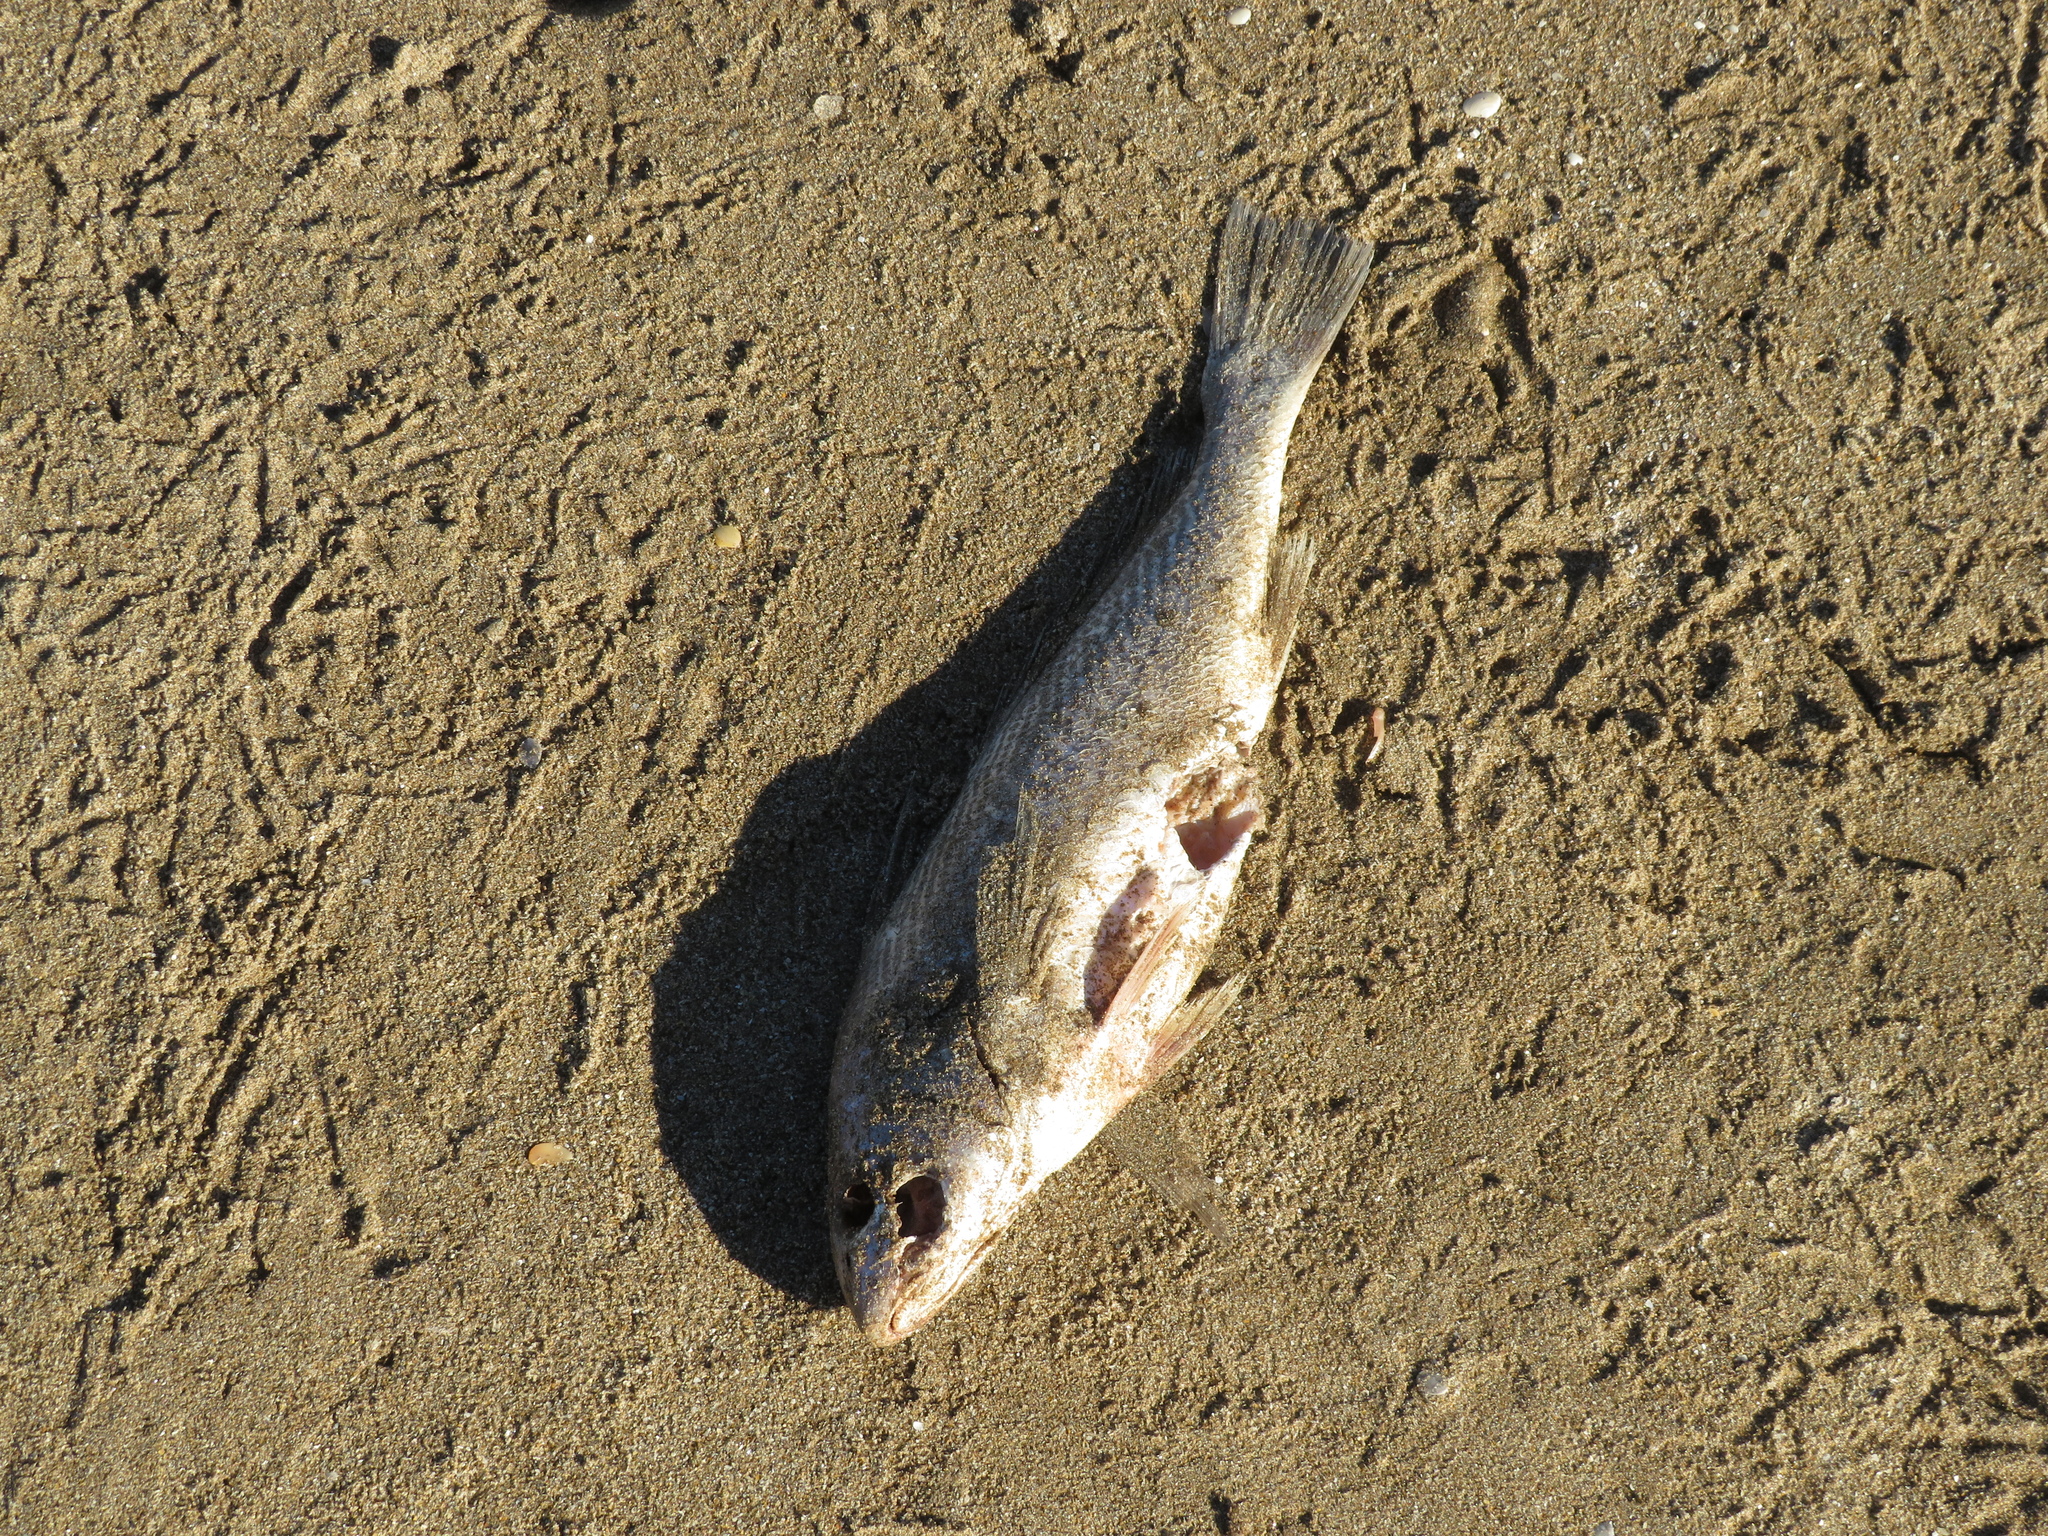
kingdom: Animalia
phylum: Chordata
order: Perciformes
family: Sciaenidae
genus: Micropogonias
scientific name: Micropogonias furnieri
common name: Whitemouth croaker
